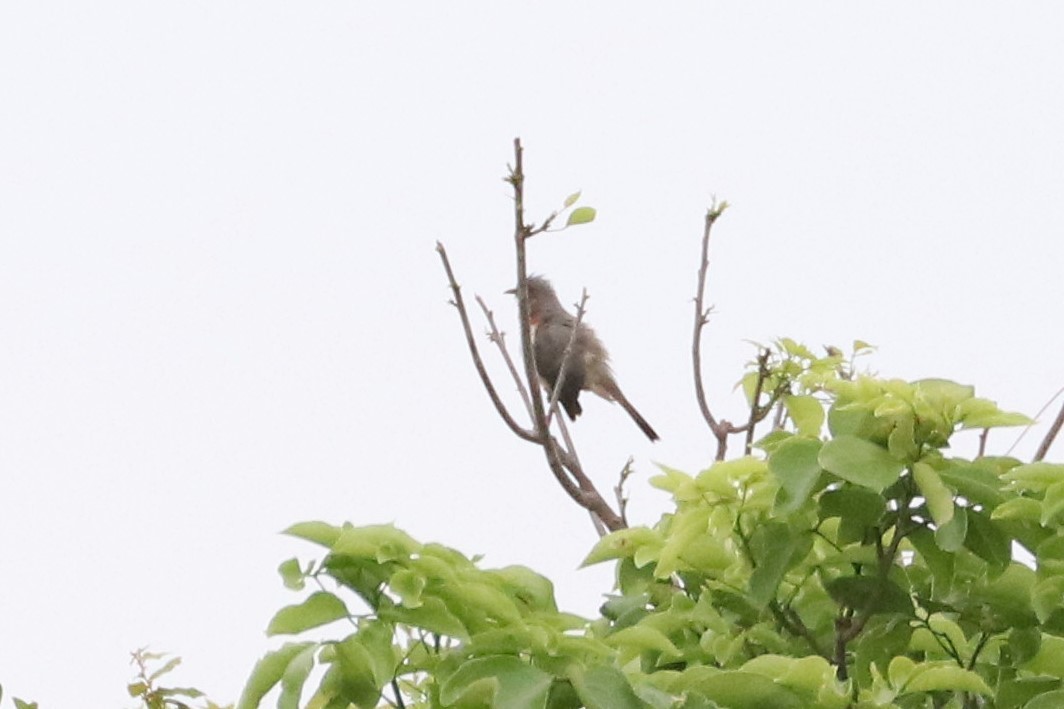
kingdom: Animalia
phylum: Chordata
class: Aves
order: Cuculiformes
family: Cuculidae
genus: Coccyzus
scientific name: Coccyzus pumilus
